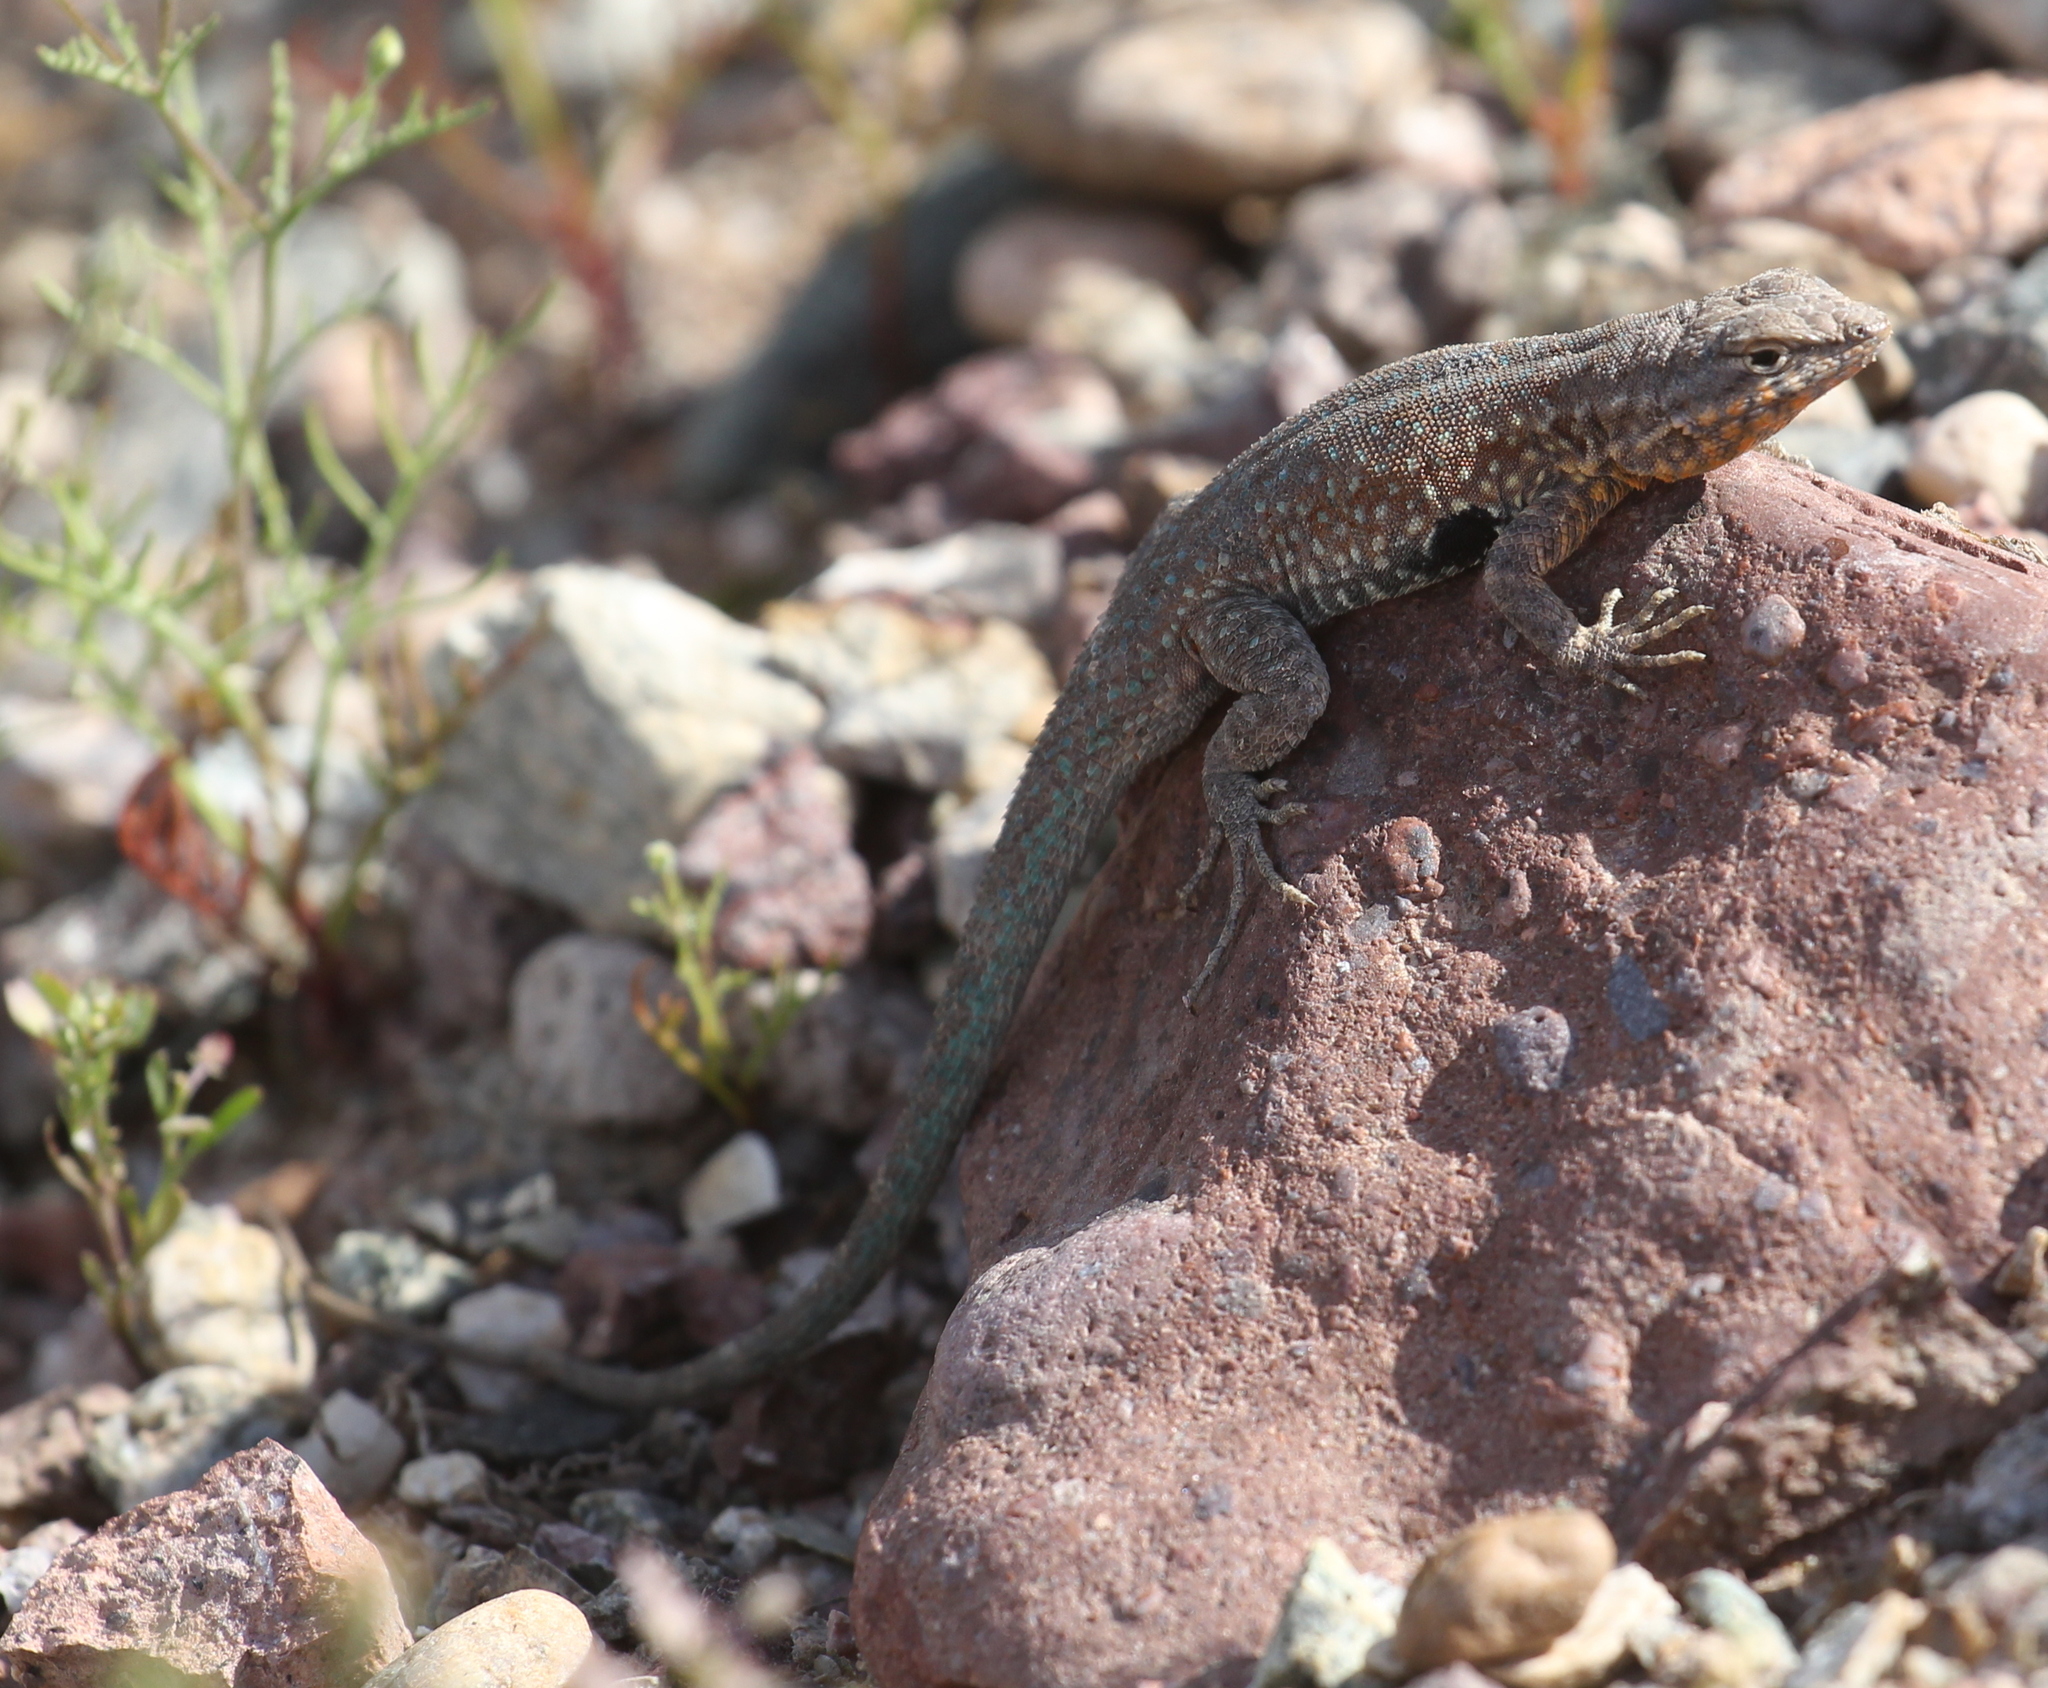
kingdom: Animalia
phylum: Chordata
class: Squamata
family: Phrynosomatidae
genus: Uta
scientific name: Uta stansburiana
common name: Side-blotched lizard
